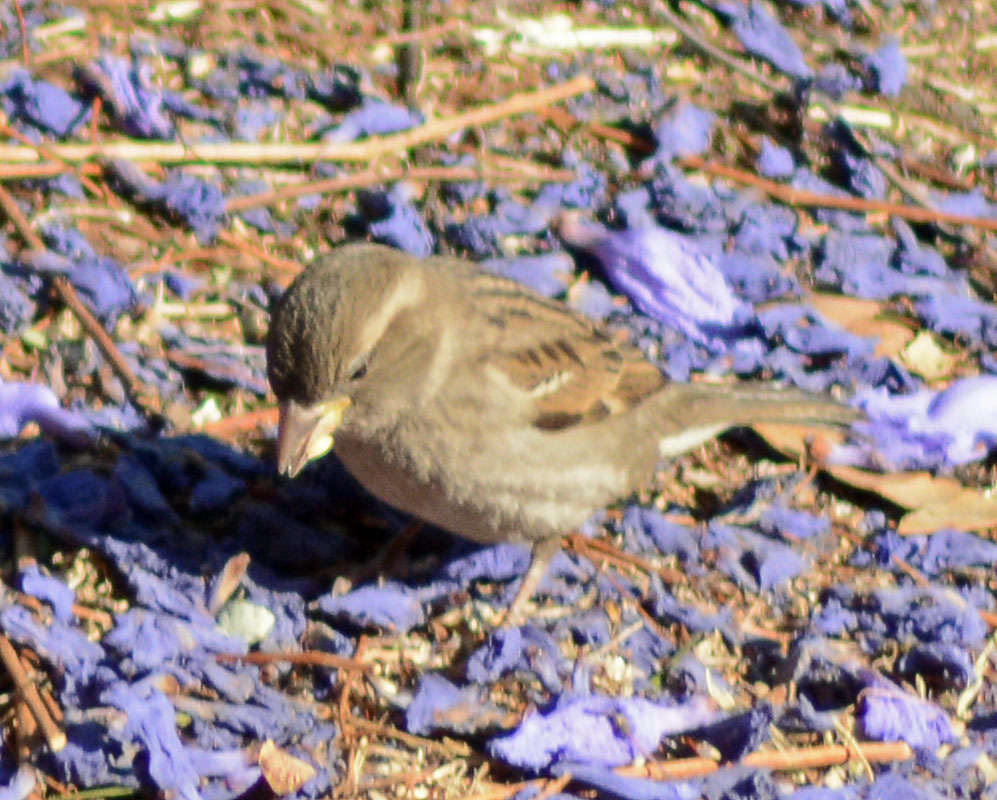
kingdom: Animalia
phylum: Chordata
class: Aves
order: Passeriformes
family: Passeridae
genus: Passer
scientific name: Passer domesticus
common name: House sparrow
